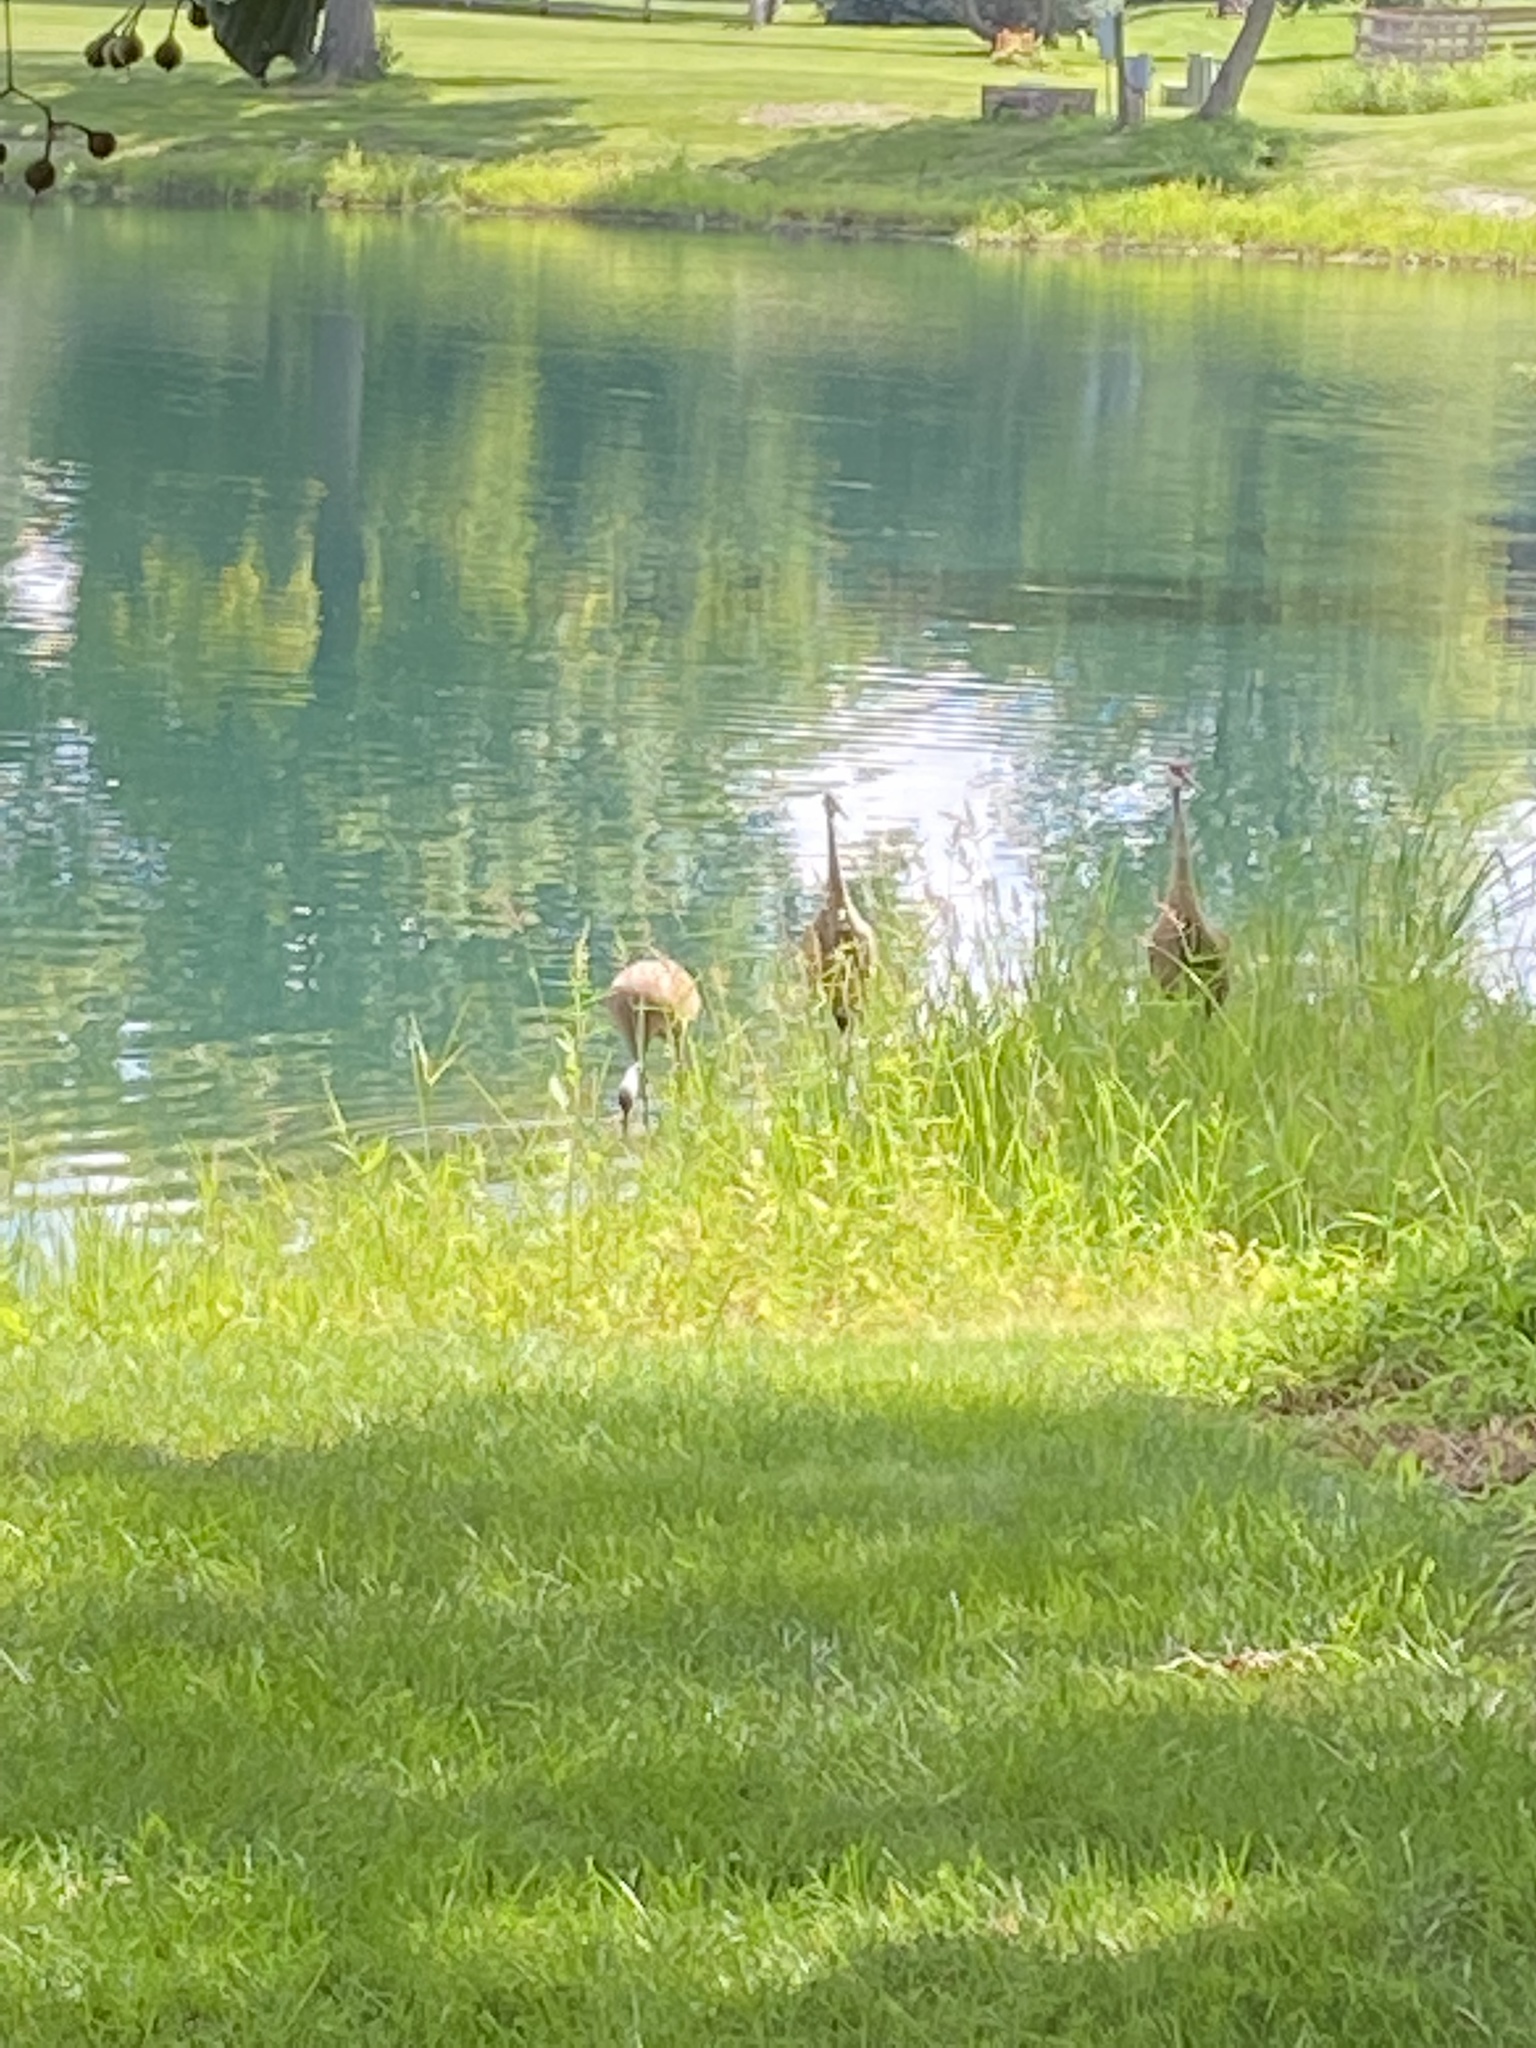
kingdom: Animalia
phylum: Chordata
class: Aves
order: Gruiformes
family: Gruidae
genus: Grus
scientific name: Grus canadensis
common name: Sandhill crane
